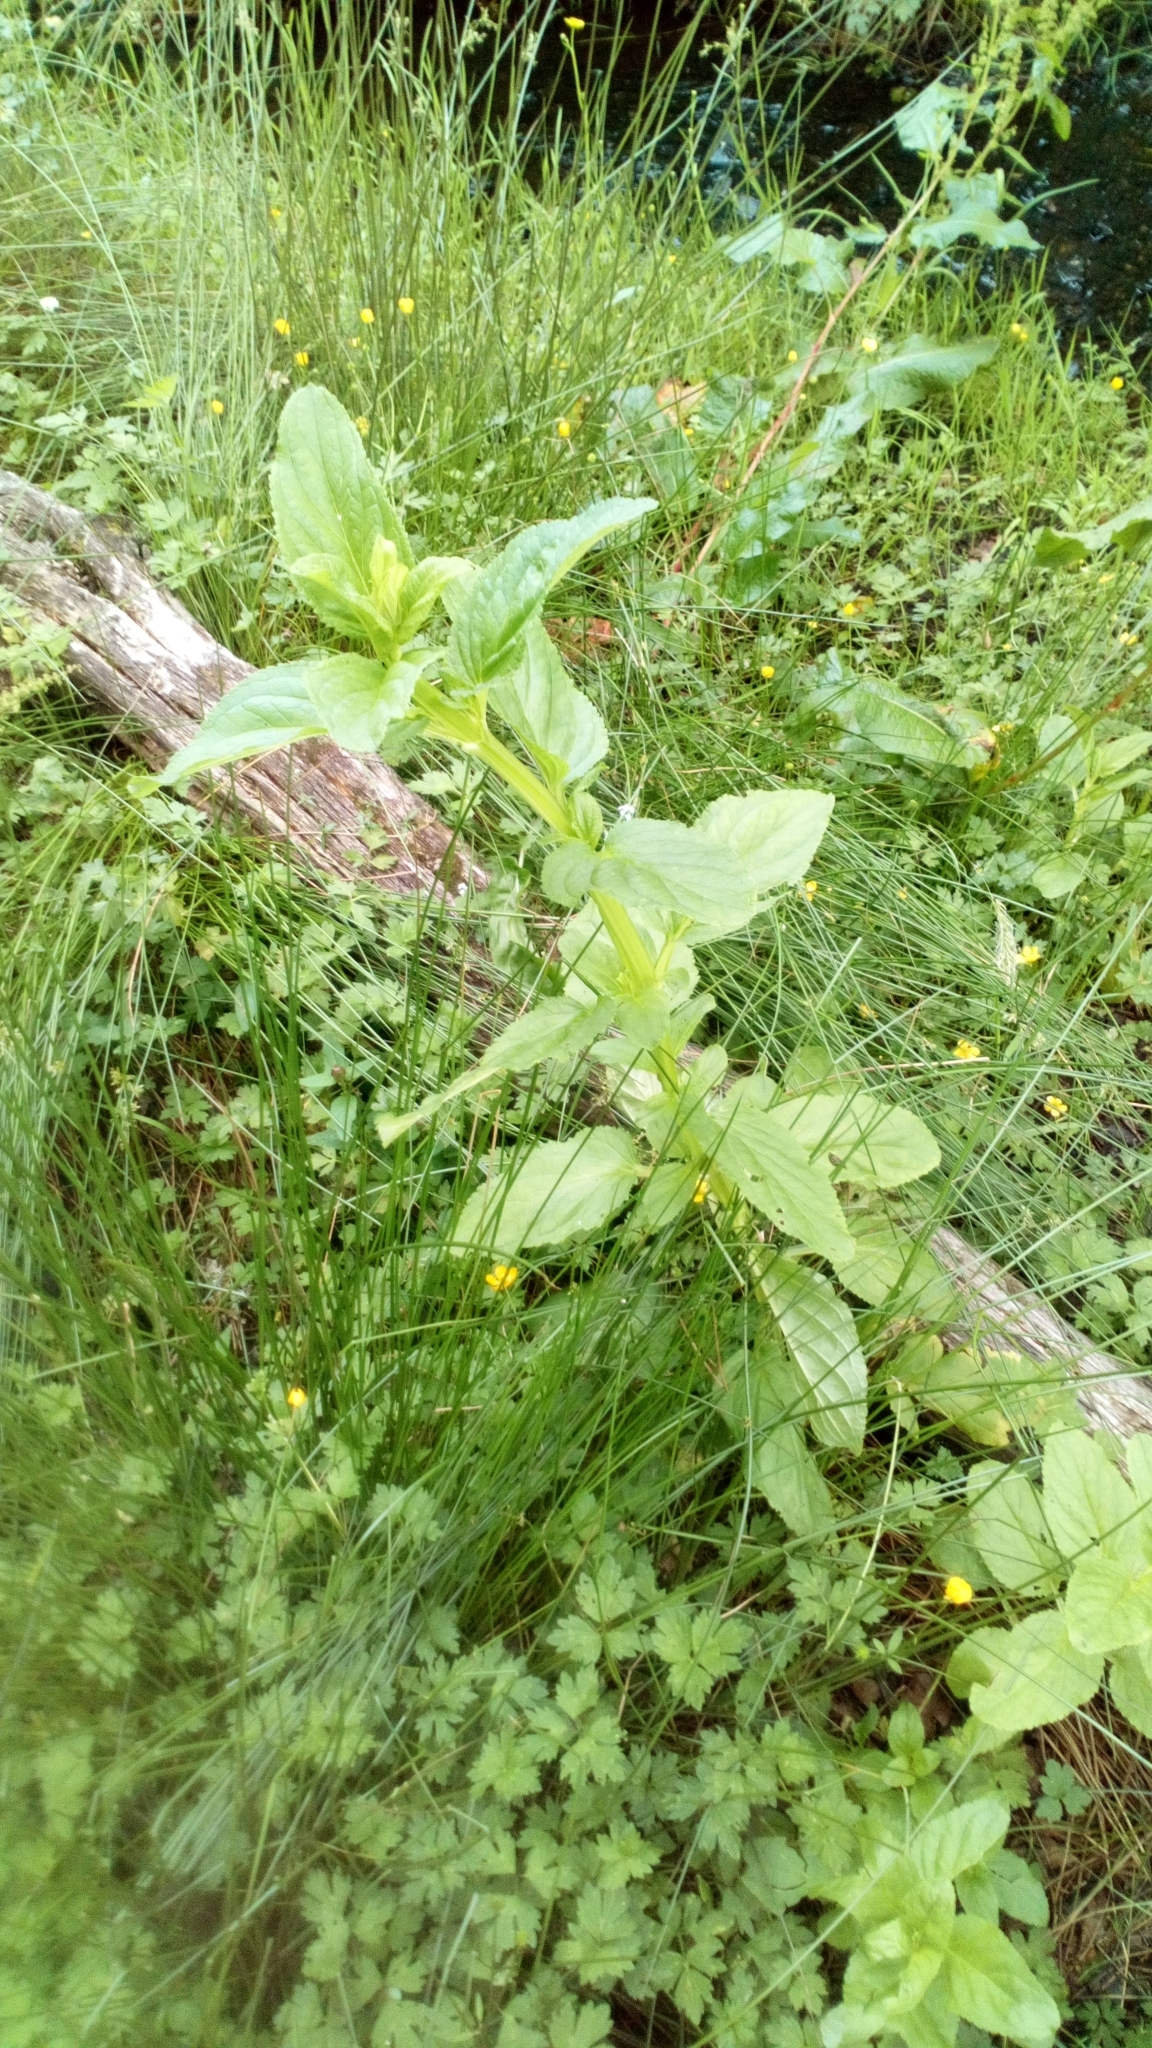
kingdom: Plantae
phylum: Tracheophyta
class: Magnoliopsida
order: Lamiales
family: Scrophulariaceae
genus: Scrophularia
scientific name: Scrophularia auriculata
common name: Water betony
